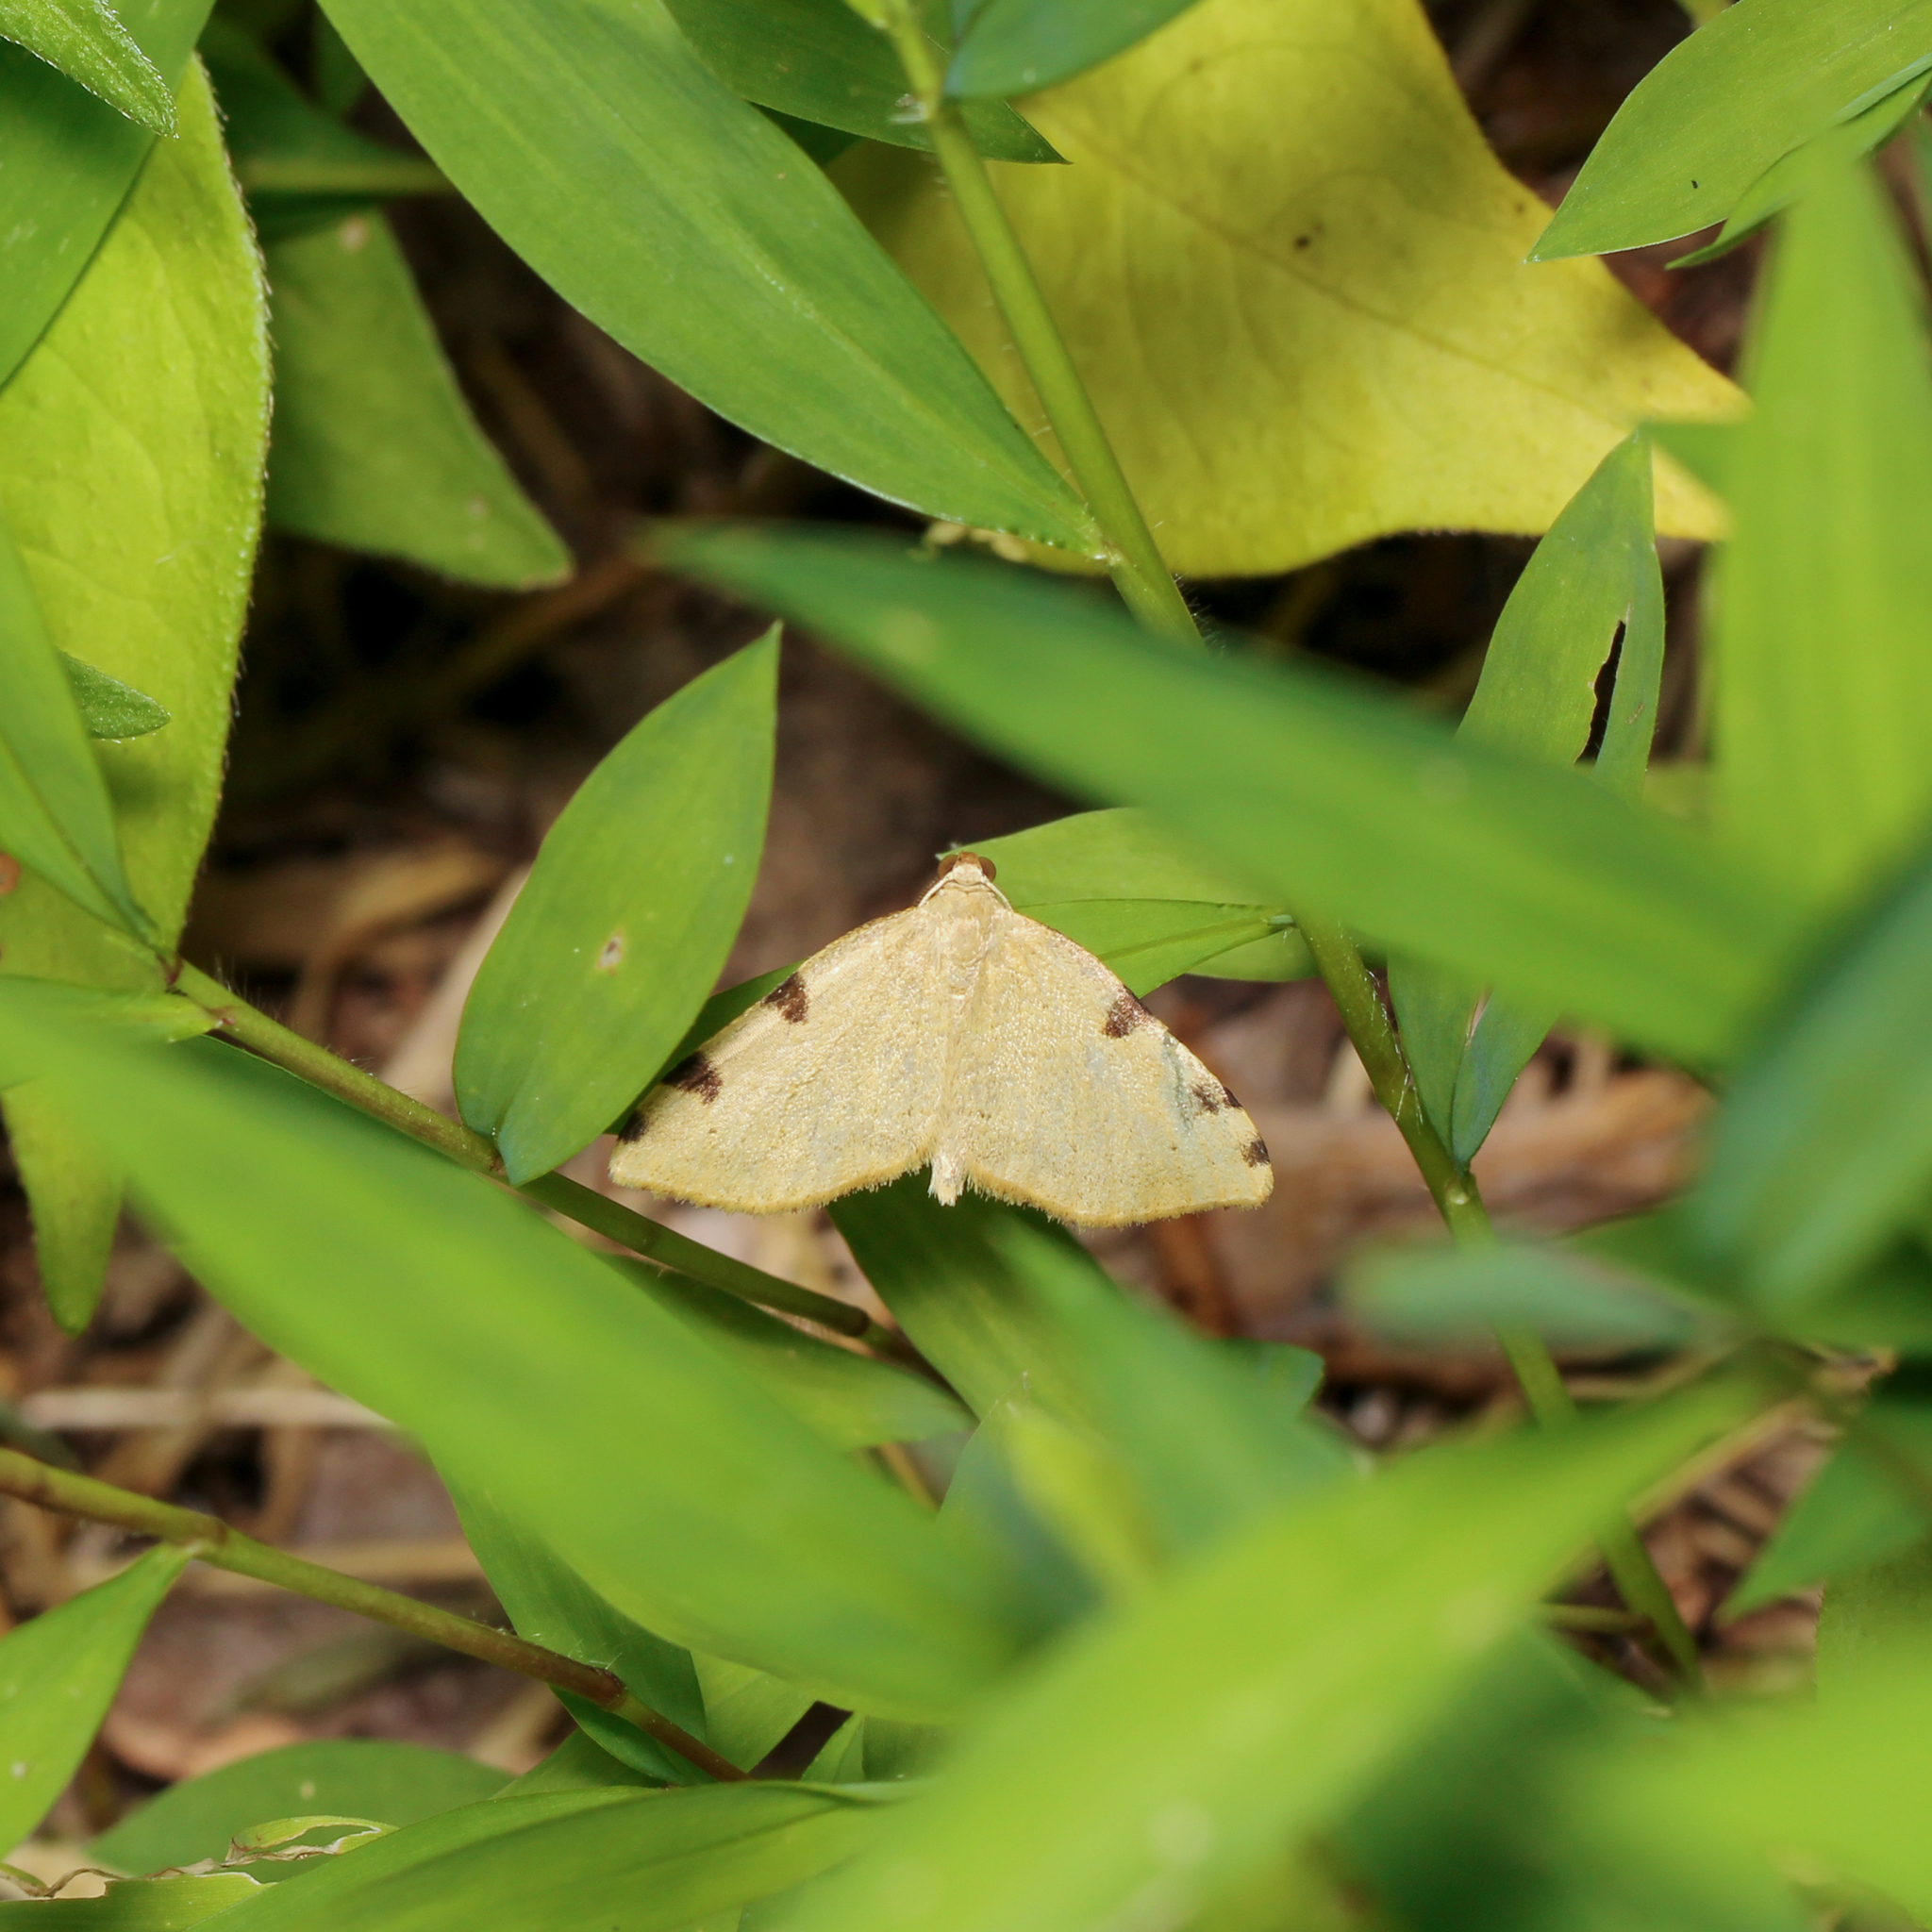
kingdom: Animalia
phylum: Arthropoda
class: Insecta
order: Lepidoptera
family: Geometridae
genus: Heterophleps
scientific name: Heterophleps triguttaria
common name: Three-spotted fillip
